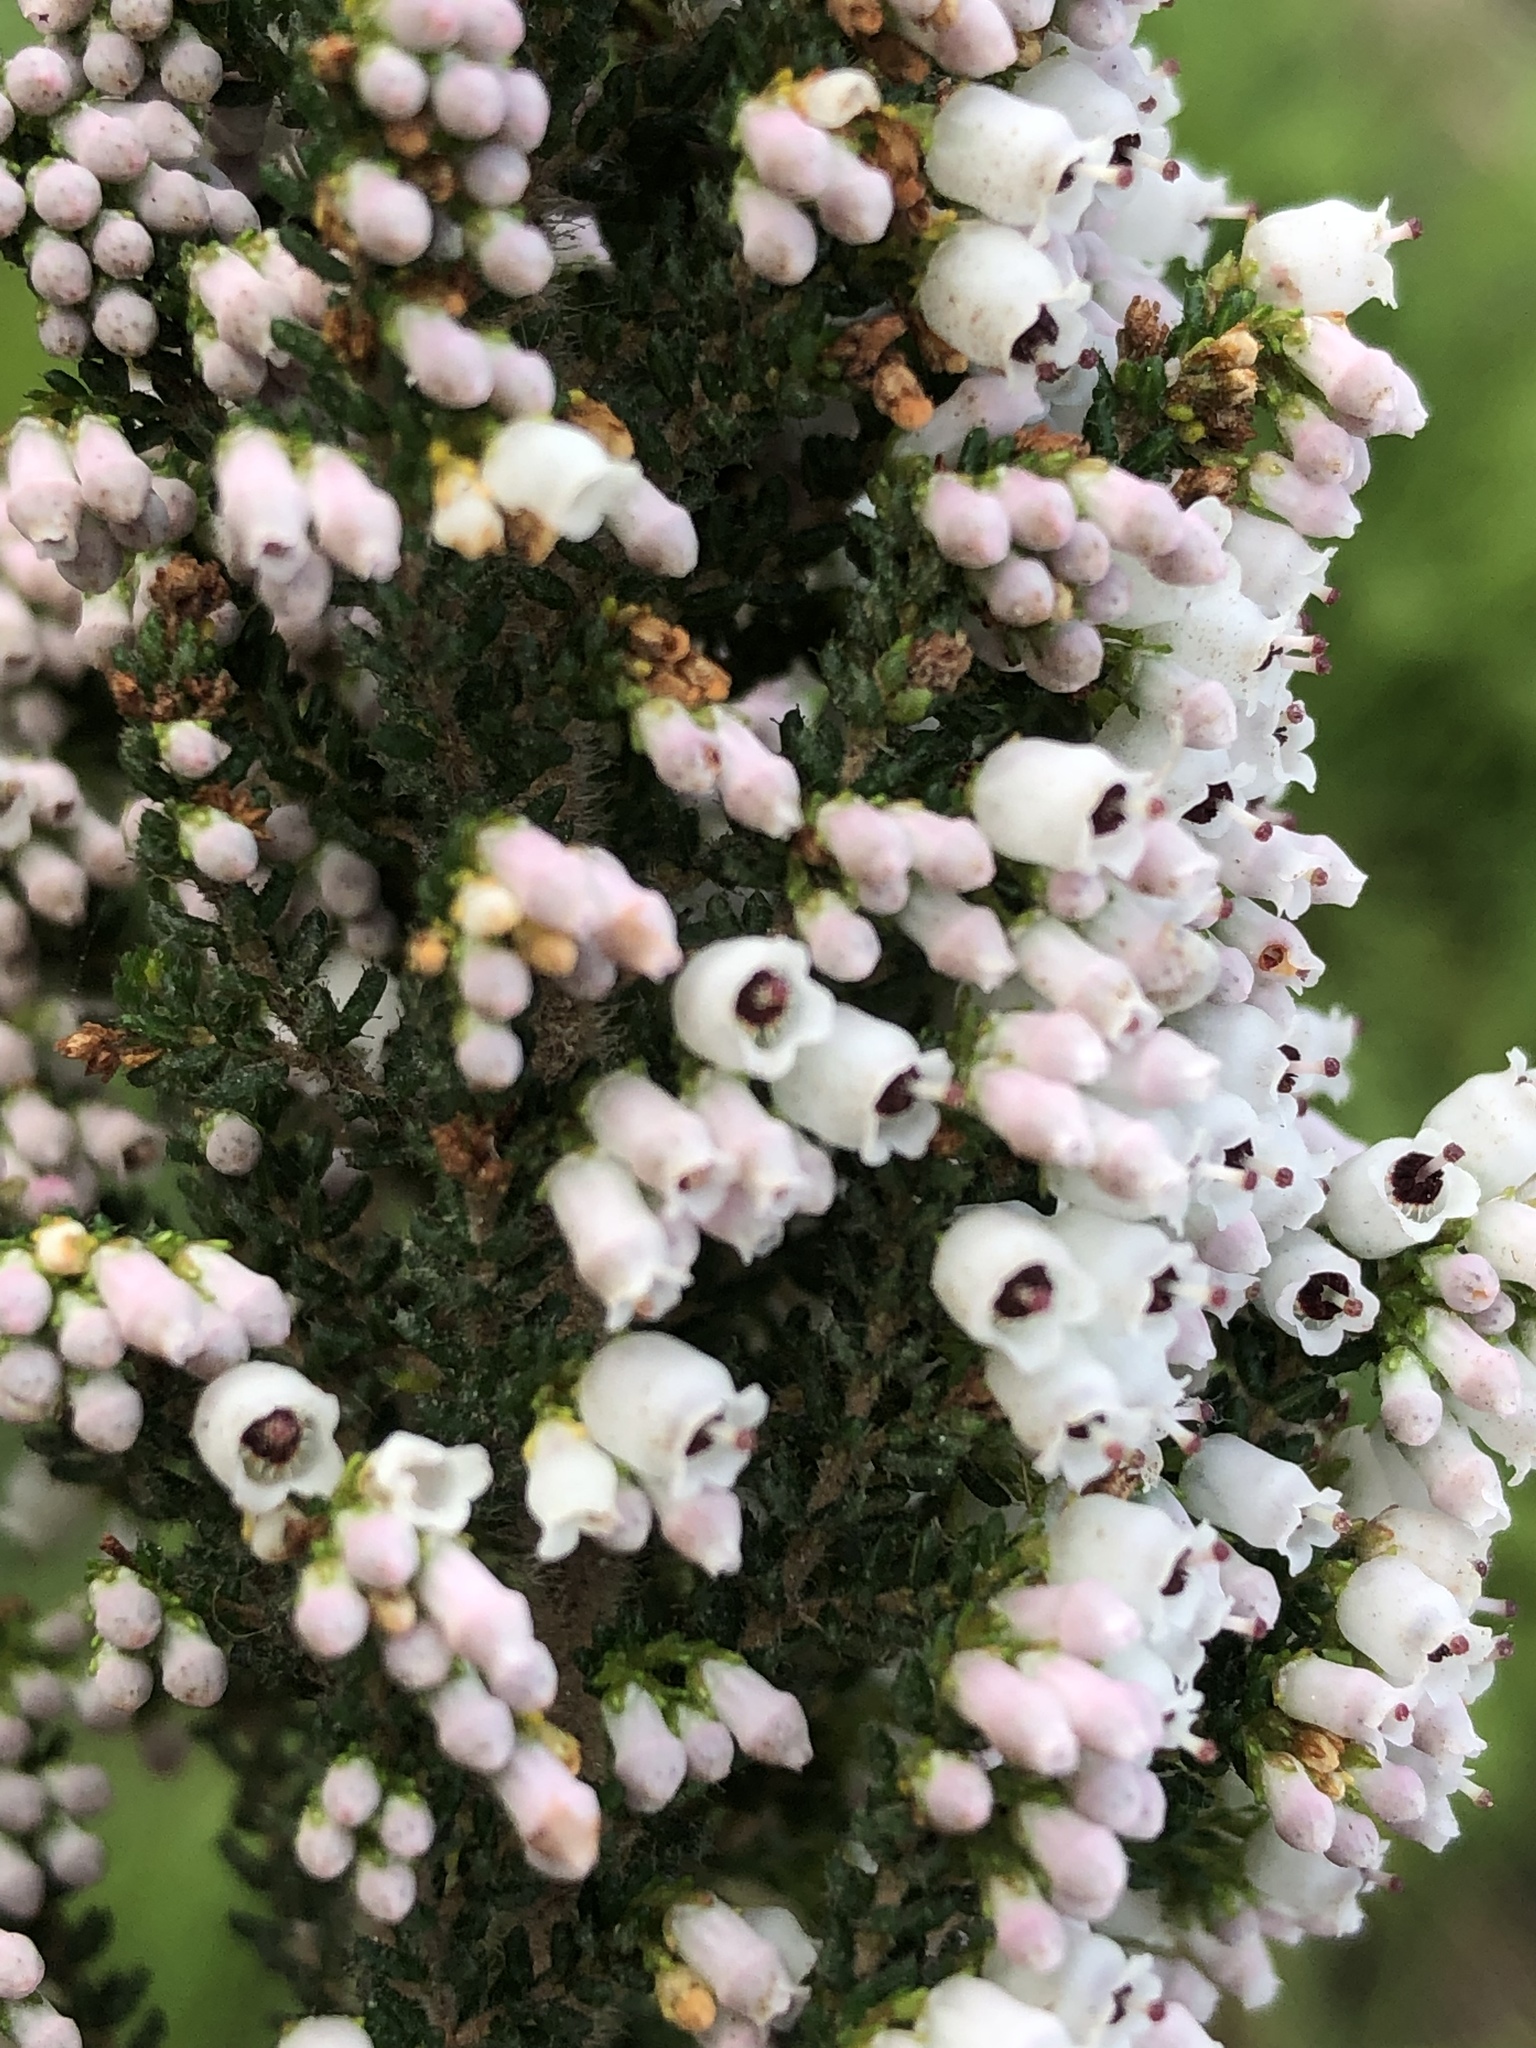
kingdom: Plantae
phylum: Tracheophyta
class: Magnoliopsida
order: Ericales
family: Ericaceae
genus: Erica
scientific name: Erica scabriuscula
